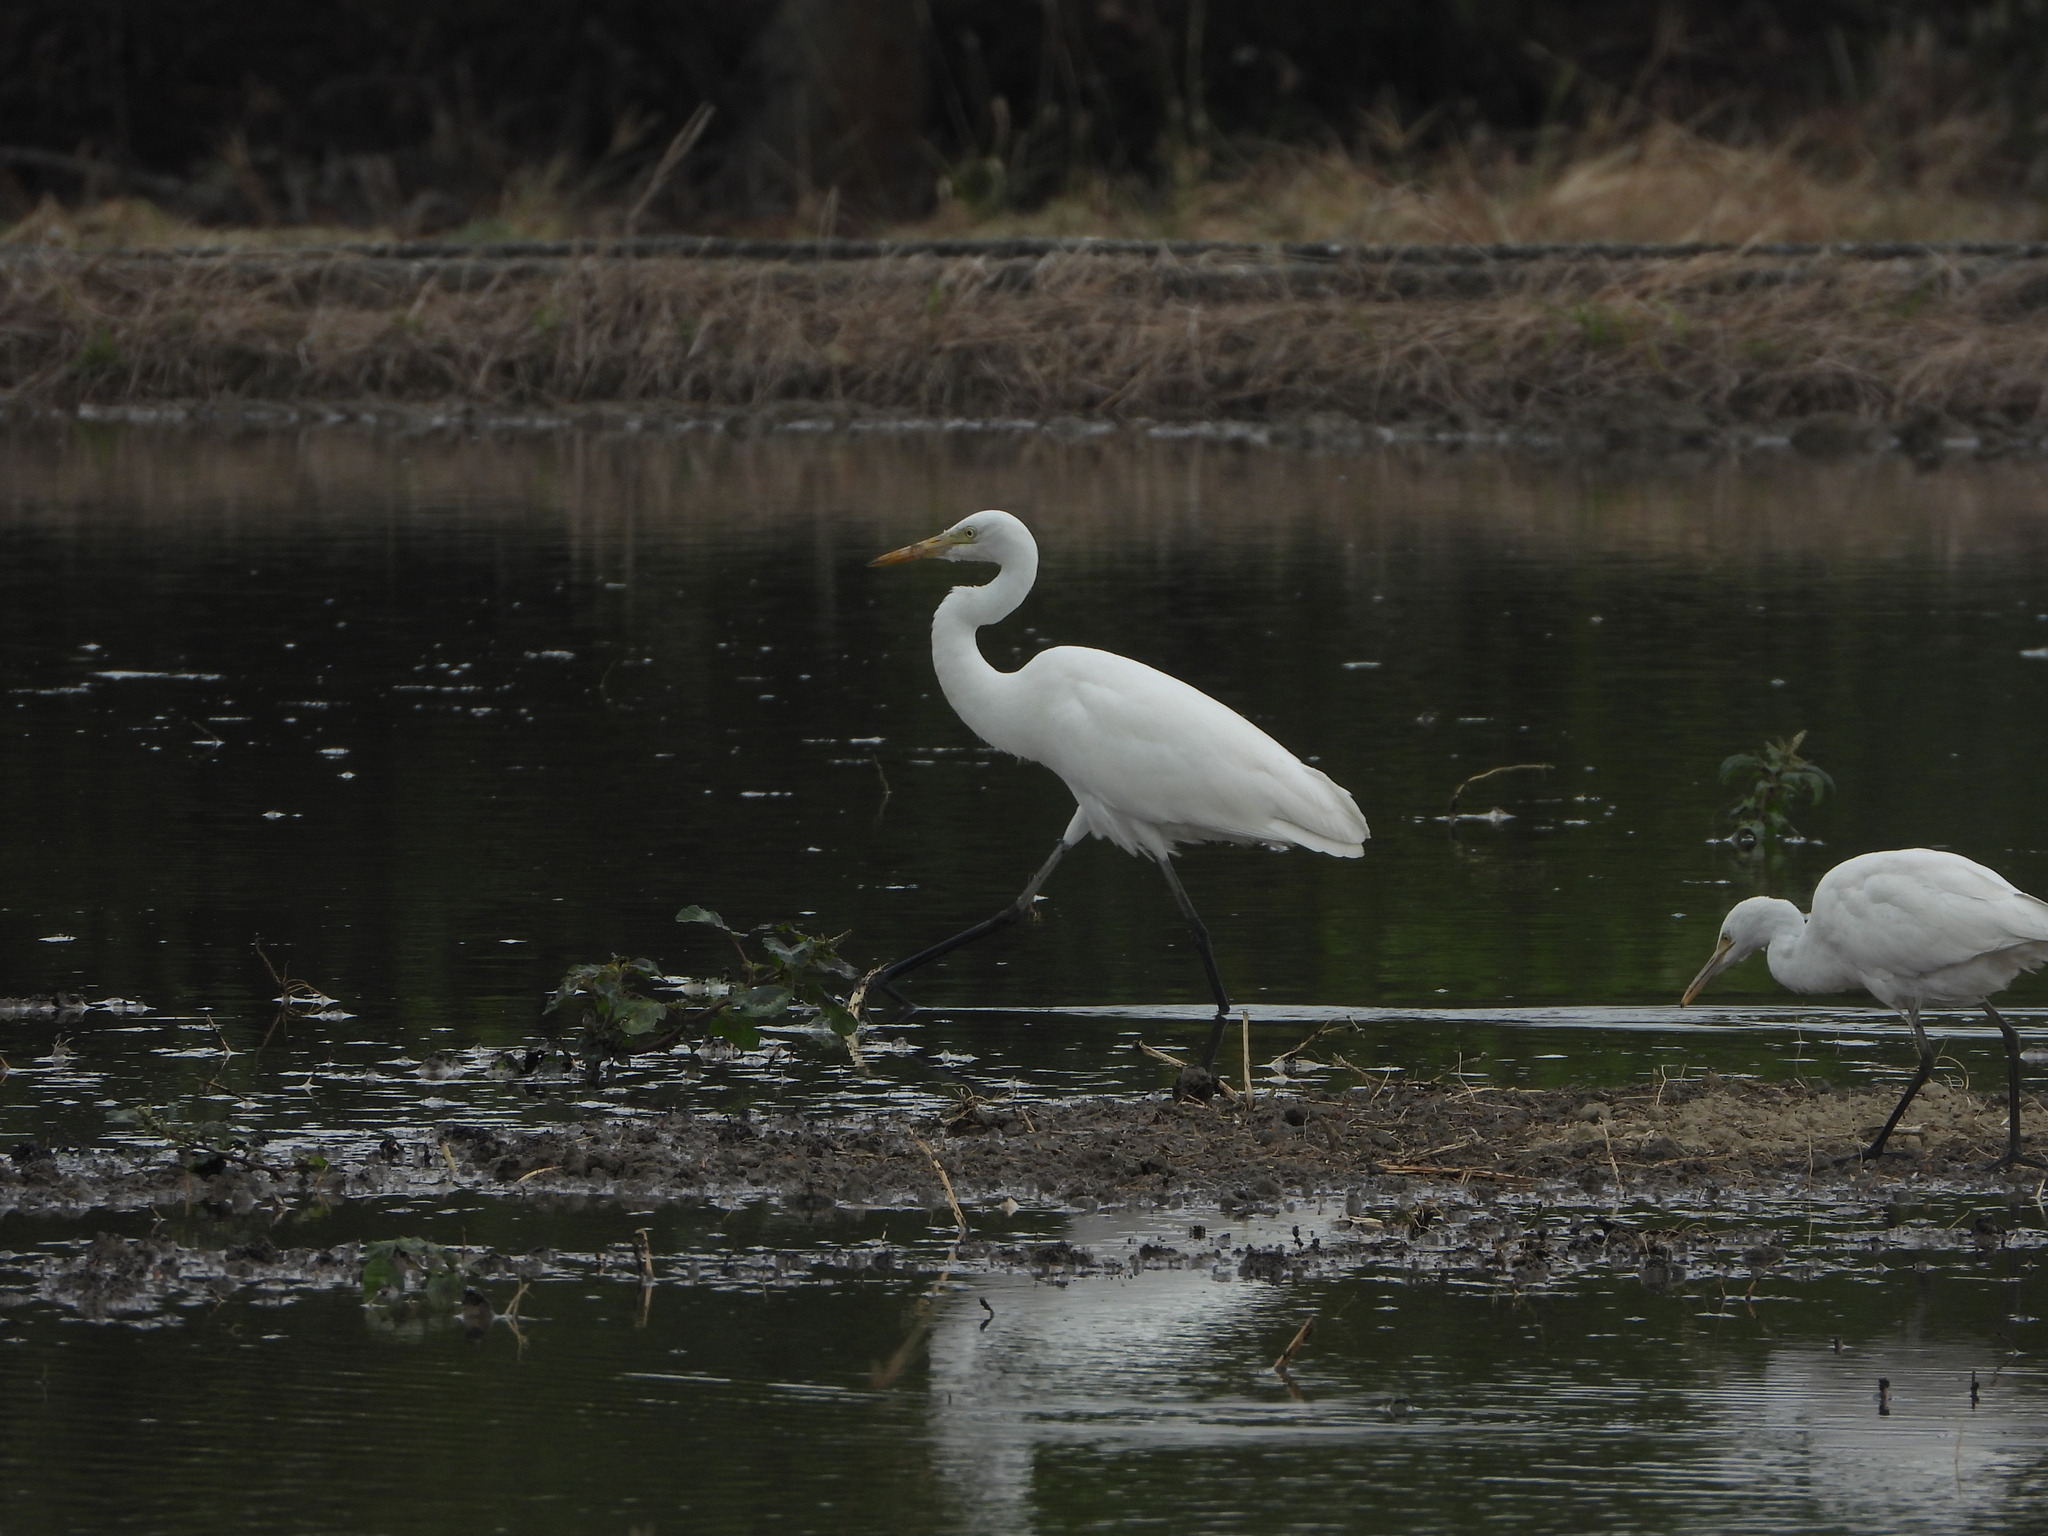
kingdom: Animalia
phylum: Chordata
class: Aves
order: Pelecaniformes
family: Ardeidae
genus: Egretta
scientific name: Egretta intermedia
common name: Intermediate egret
